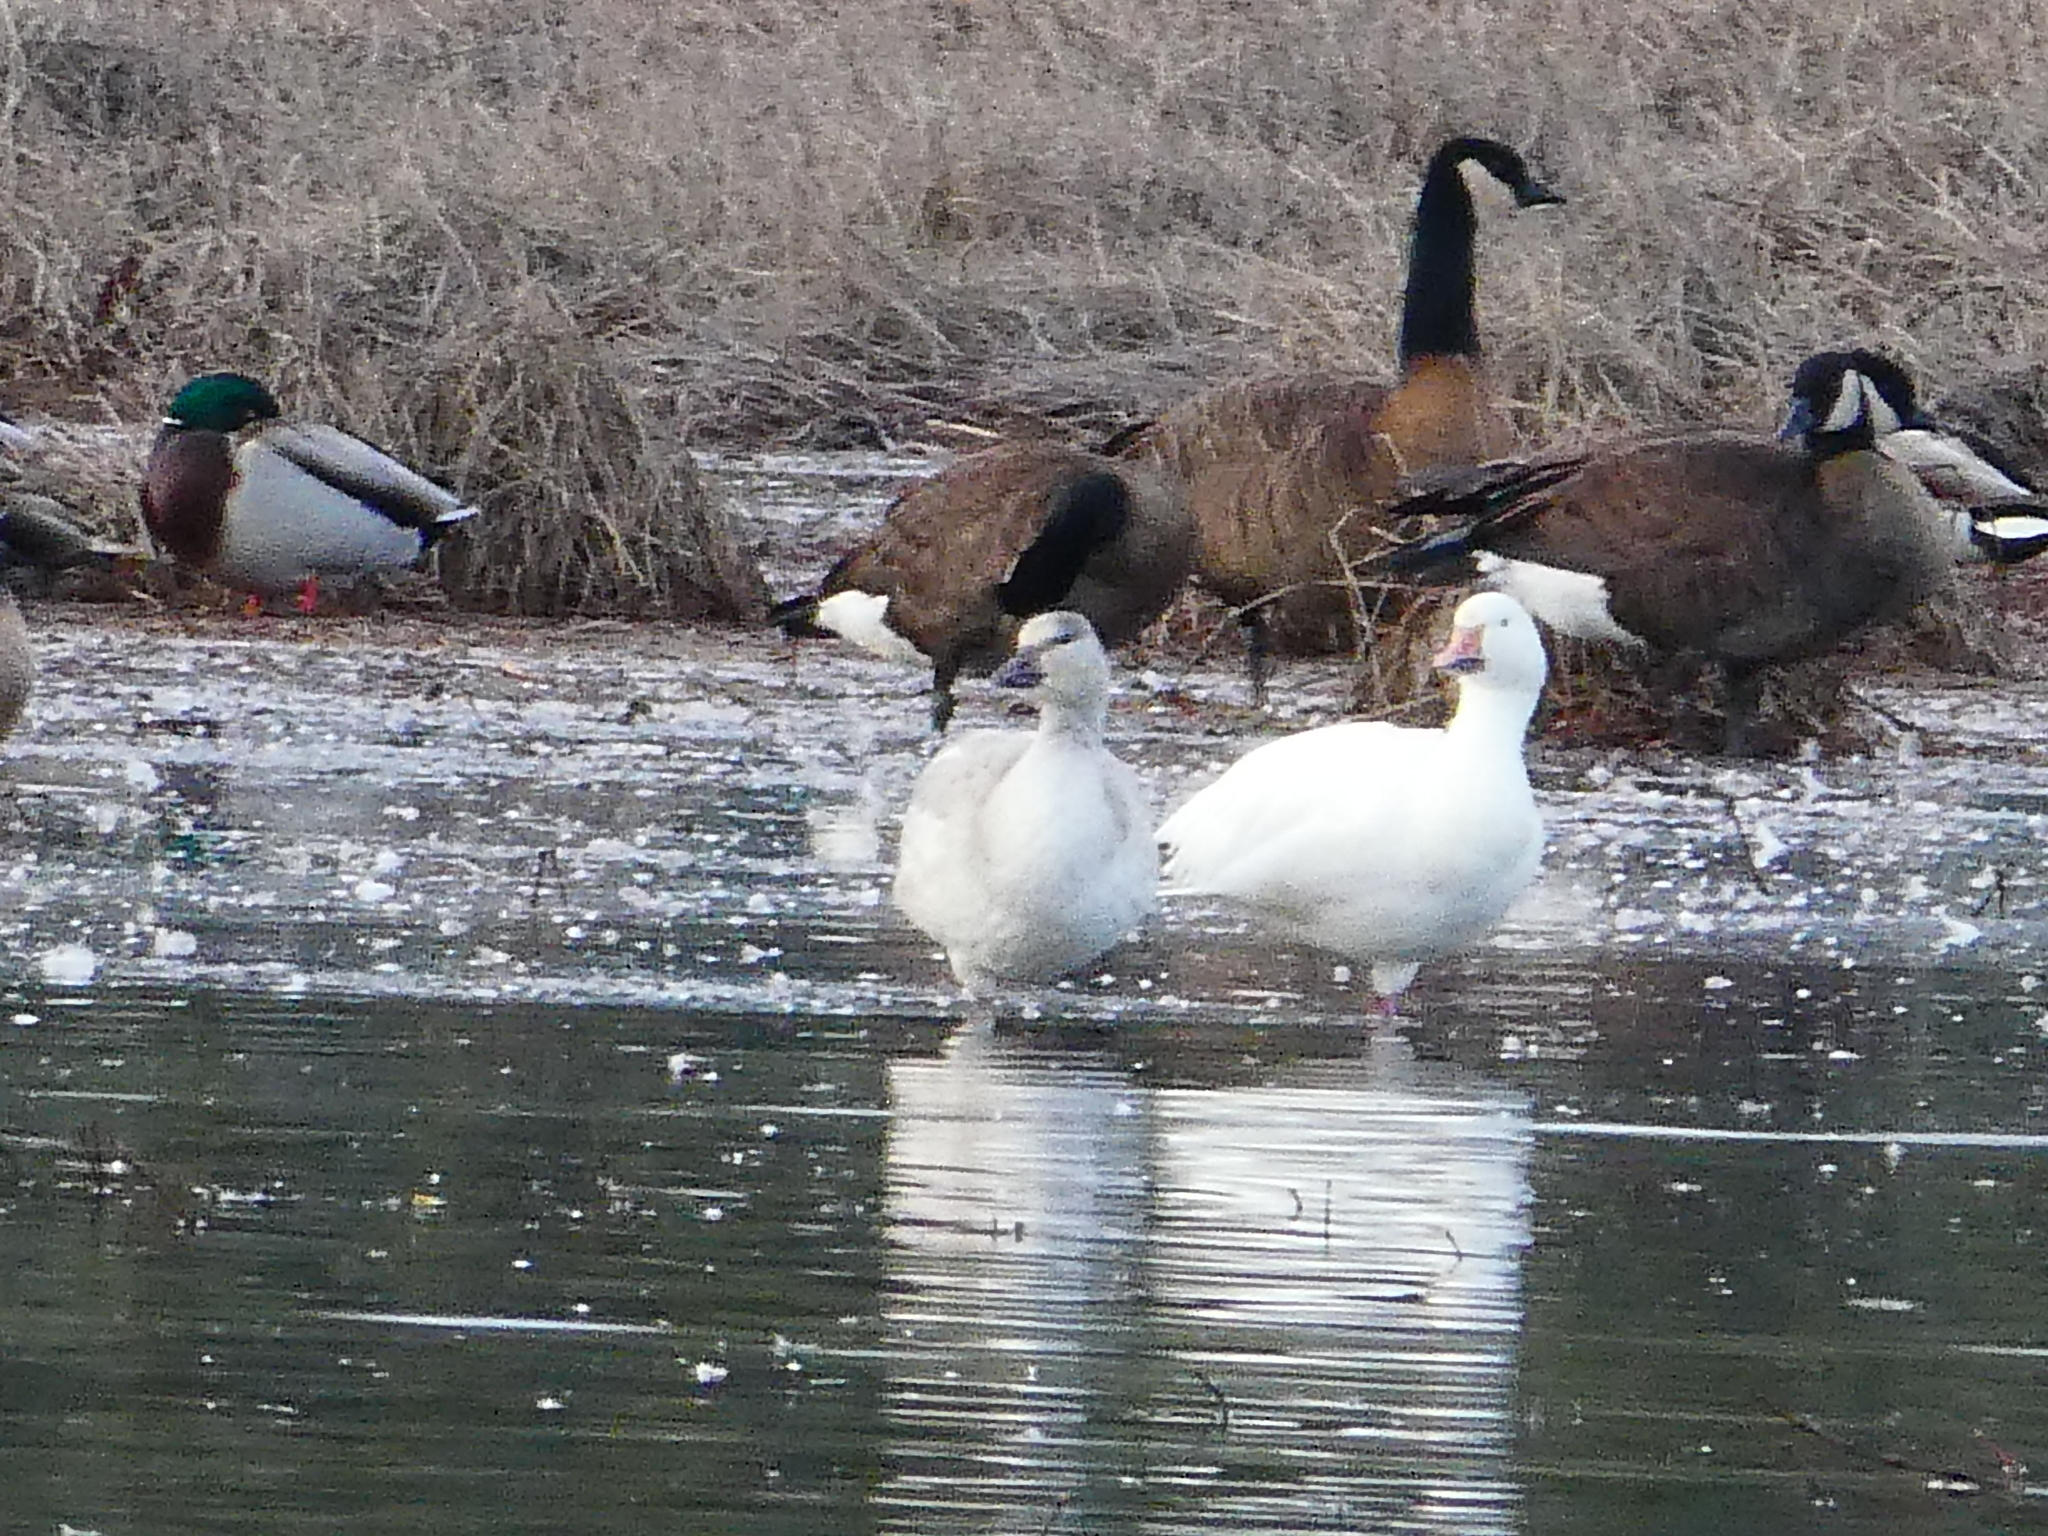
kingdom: Animalia
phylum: Chordata
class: Aves
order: Anseriformes
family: Anatidae
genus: Anser
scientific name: Anser caerulescens
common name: Snow goose
